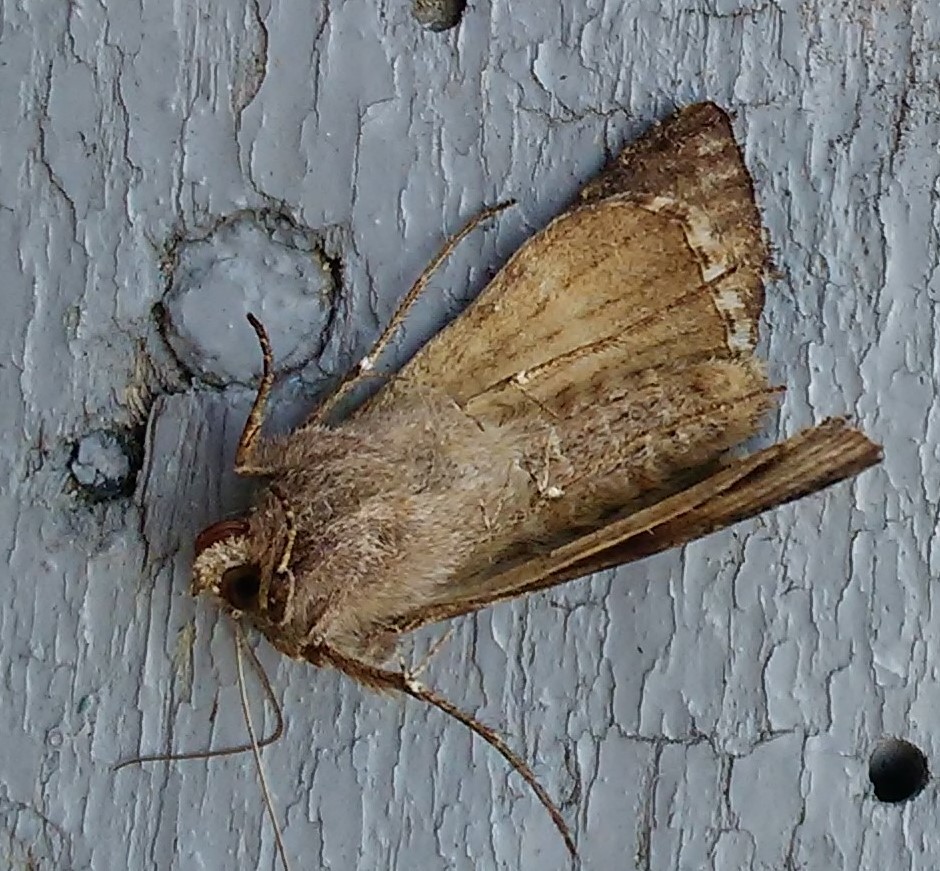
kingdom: Animalia
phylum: Arthropoda
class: Insecta
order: Lepidoptera
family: Noctuidae
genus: Autographa
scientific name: Autographa gamma
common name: Silver y
